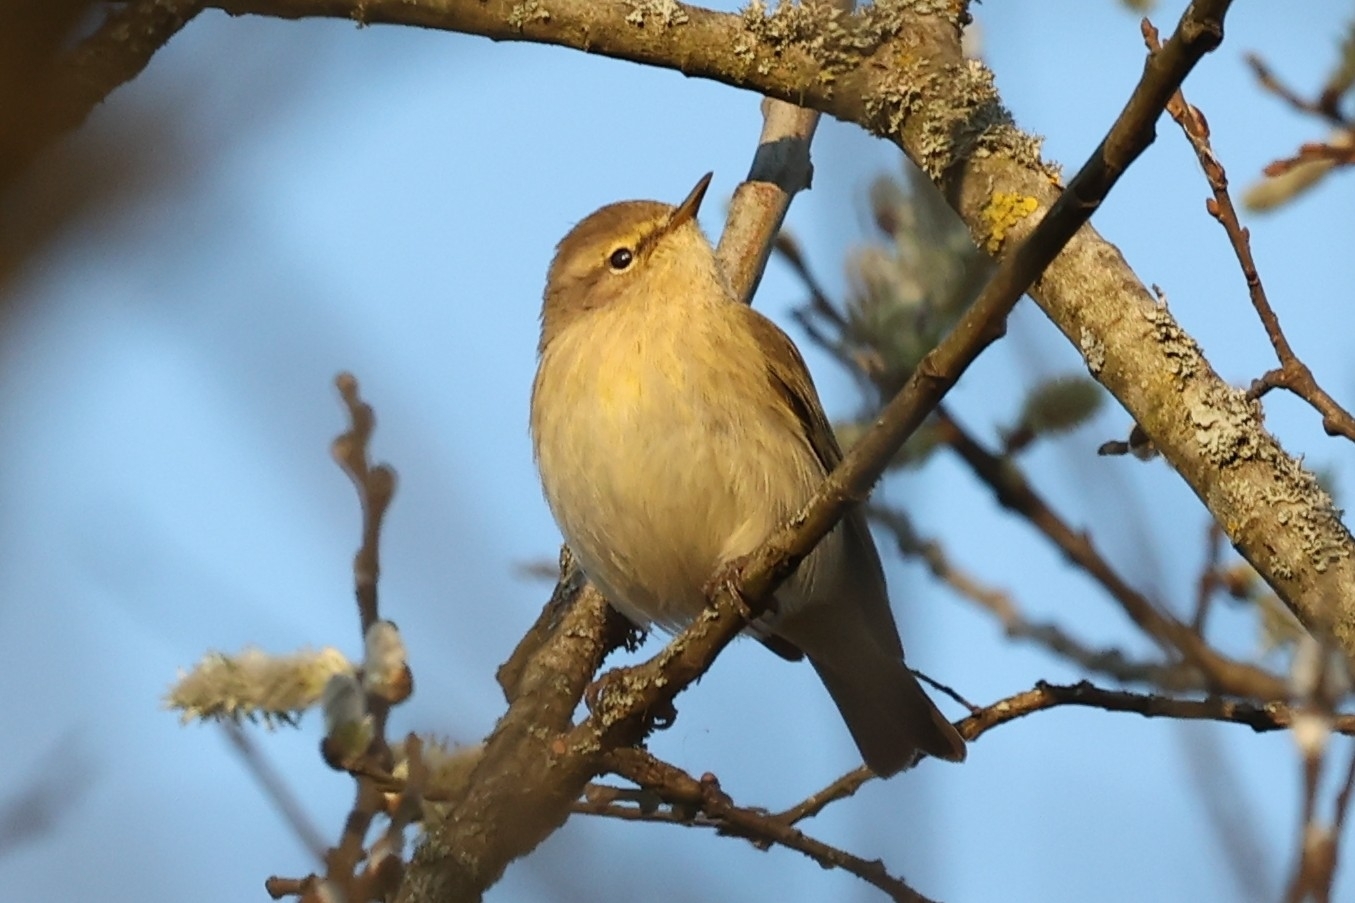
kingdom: Animalia
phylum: Chordata
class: Aves
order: Passeriformes
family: Phylloscopidae
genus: Phylloscopus
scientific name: Phylloscopus collybita
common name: Common chiffchaff
